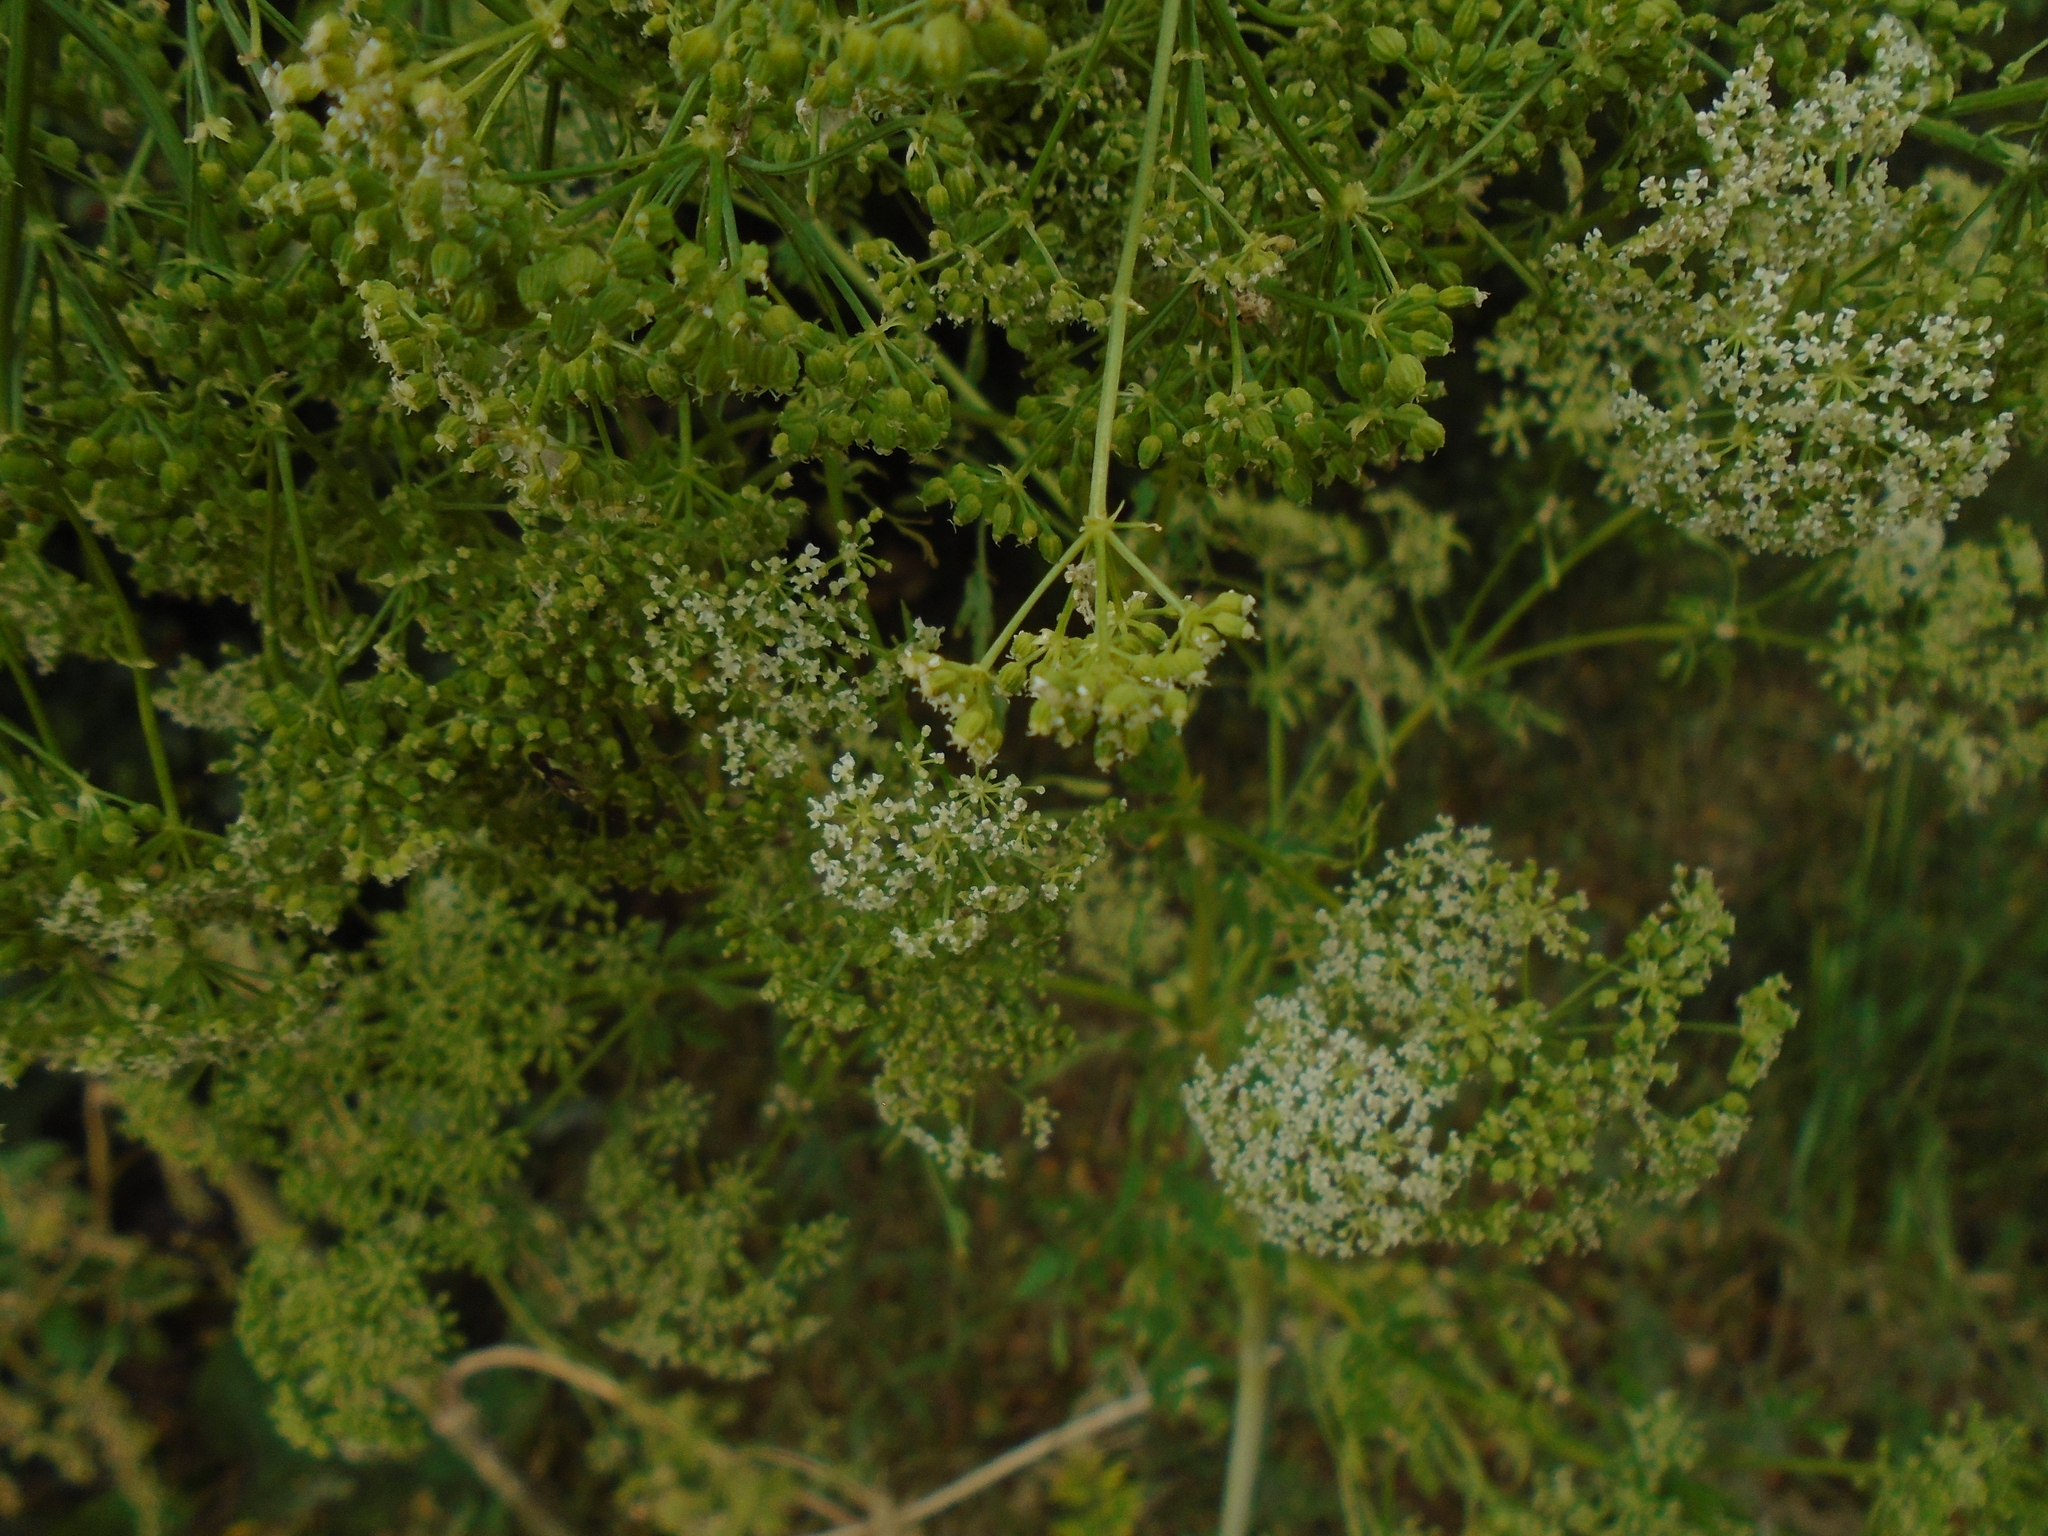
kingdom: Plantae
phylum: Tracheophyta
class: Magnoliopsida
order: Apiales
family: Apiaceae
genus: Conium
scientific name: Conium maculatum
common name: Hemlock
